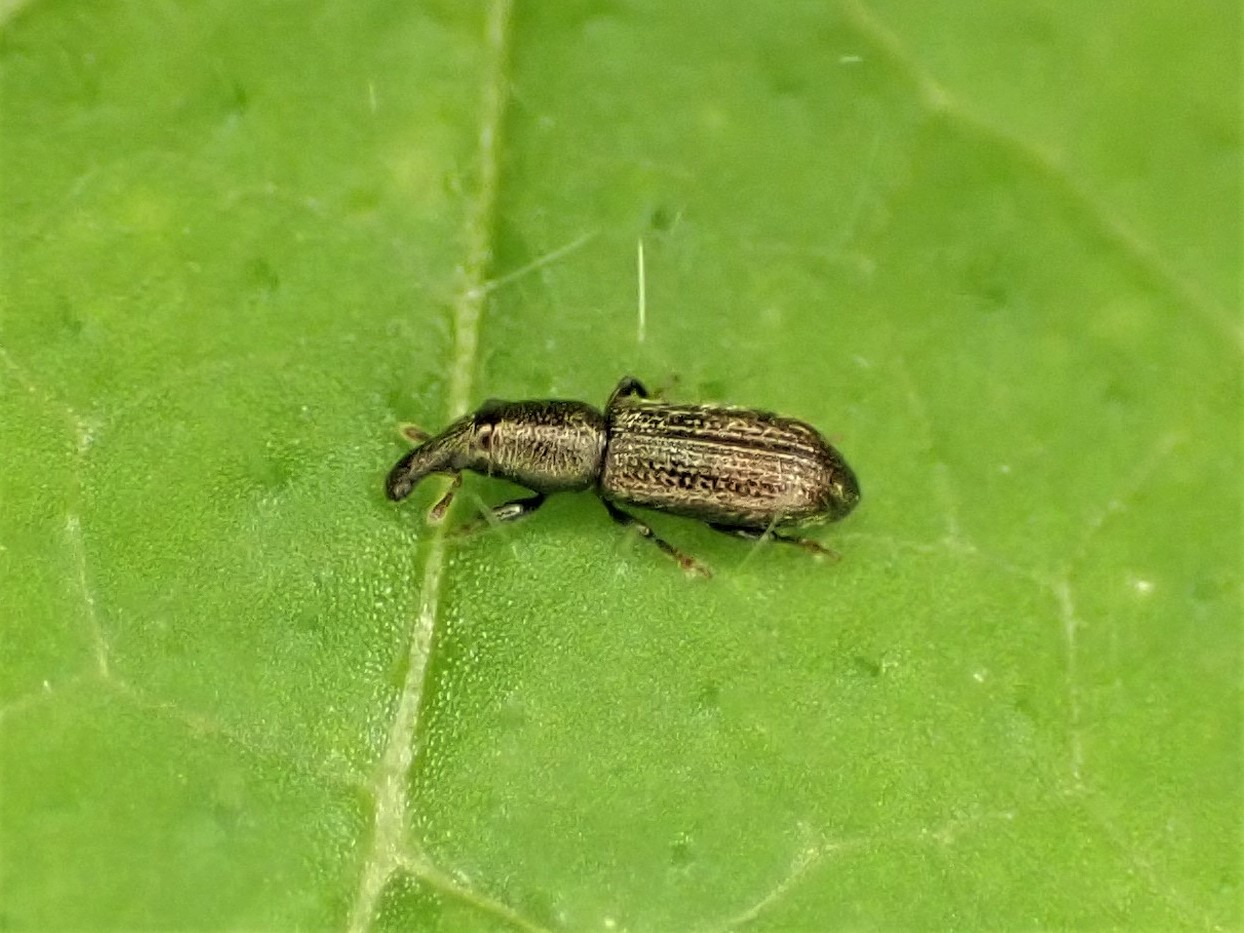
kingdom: Animalia
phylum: Arthropoda
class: Insecta
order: Coleoptera
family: Curculionidae
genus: Sericotrogus
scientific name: Sericotrogus subaenescens
